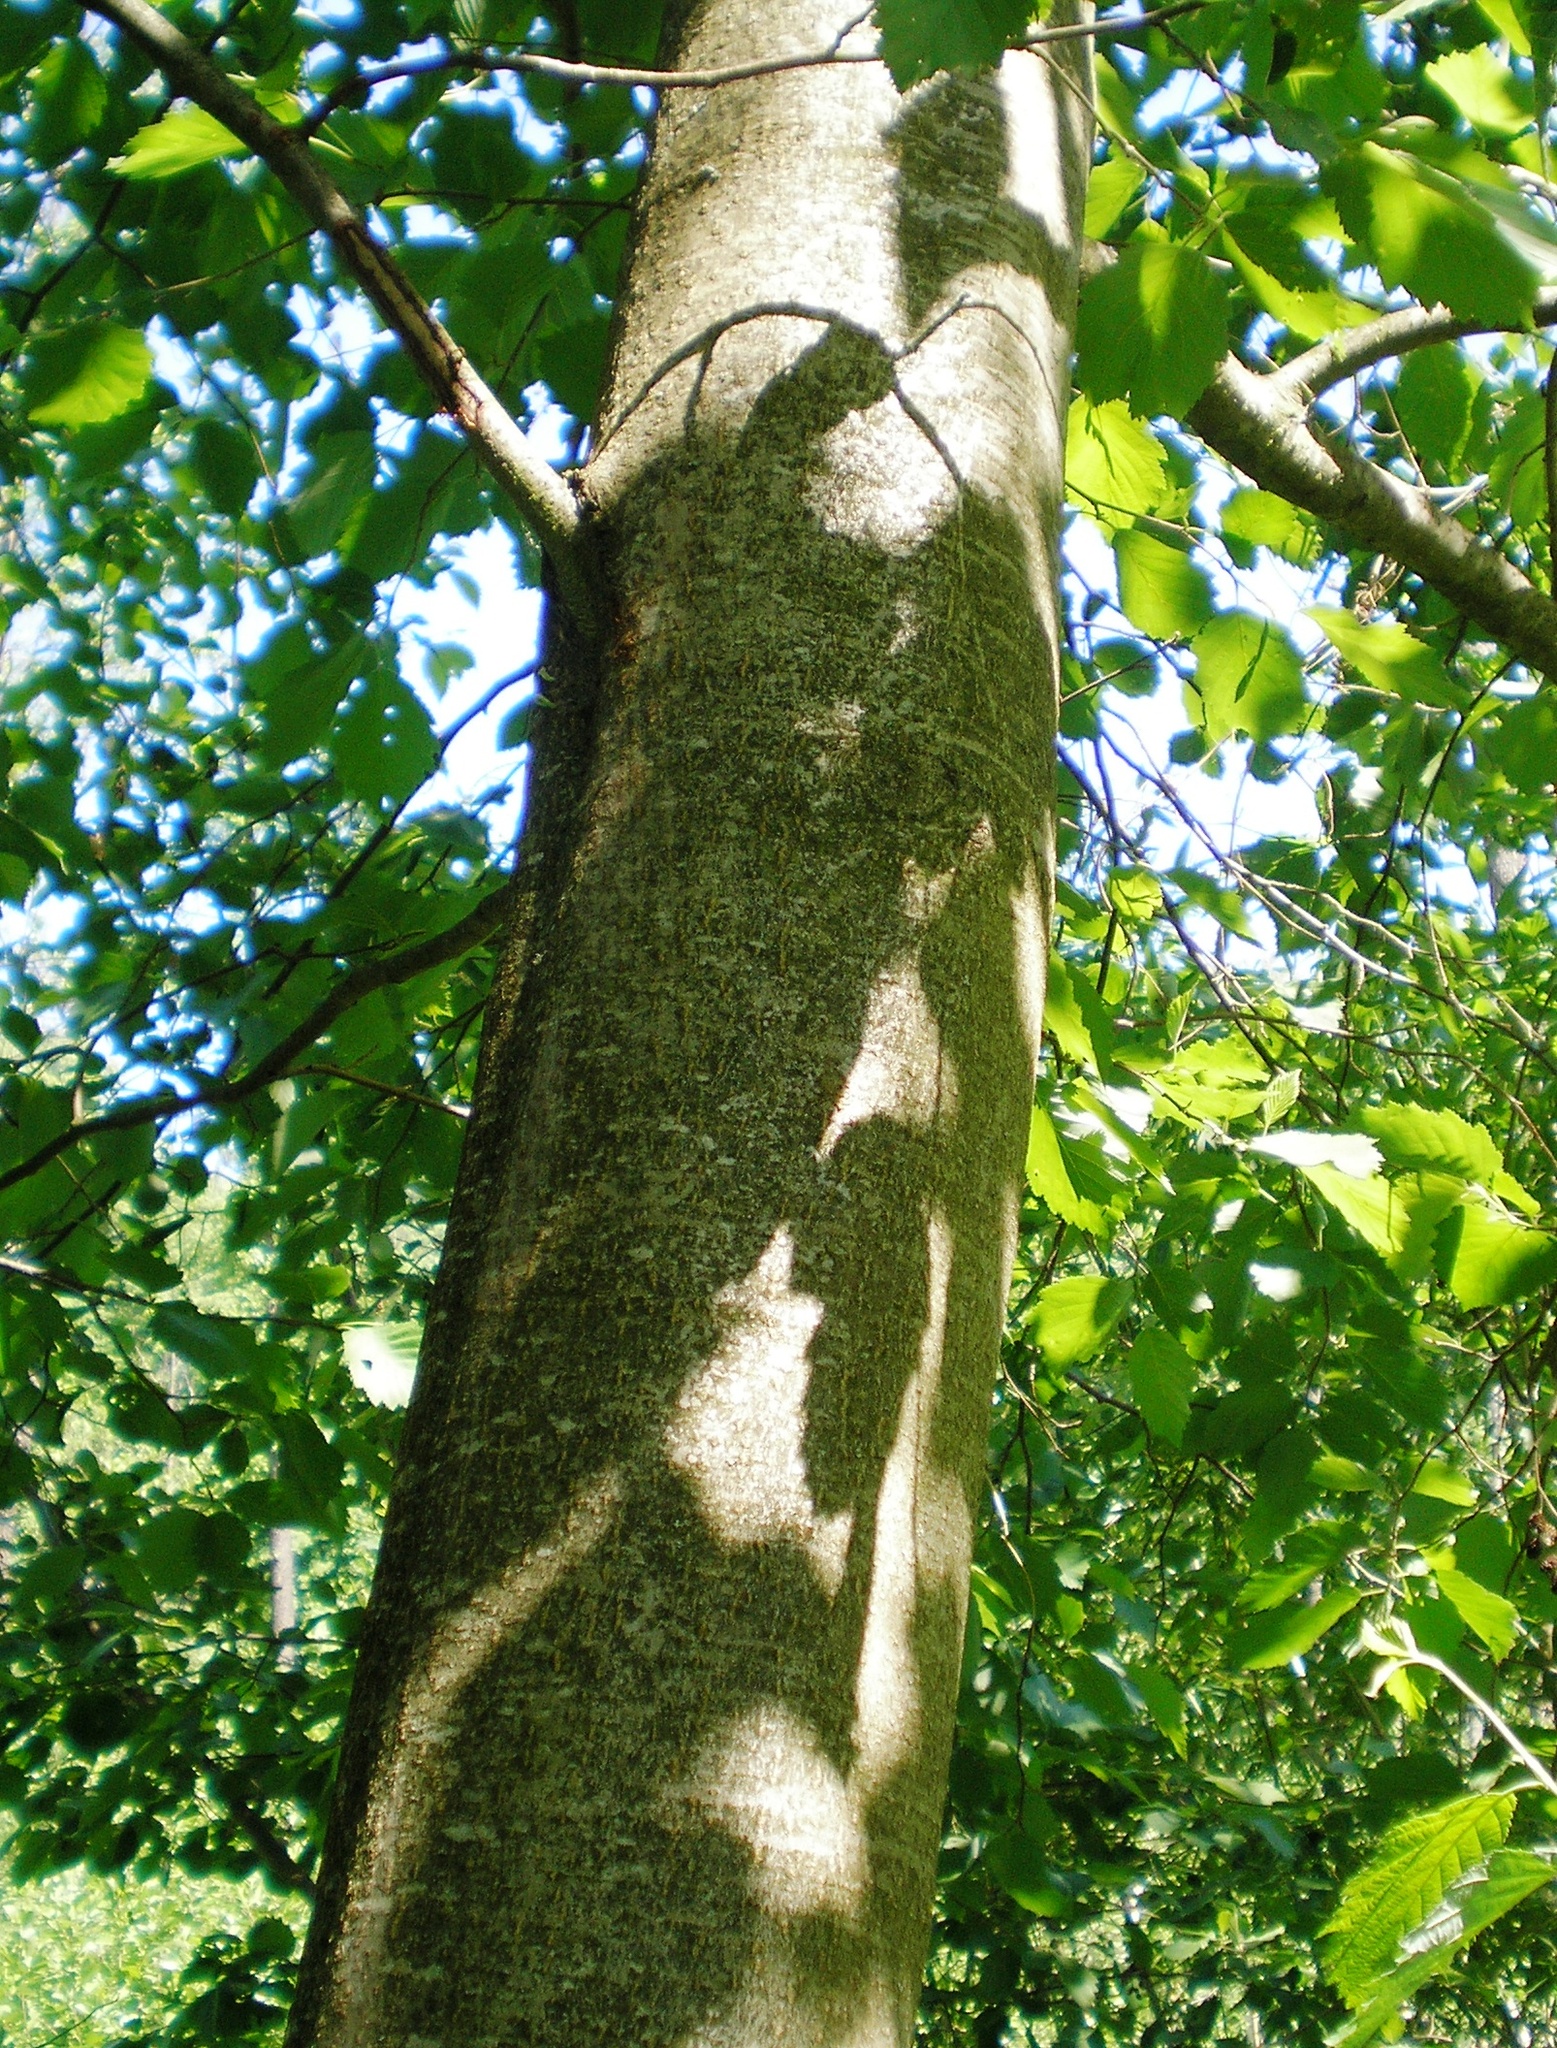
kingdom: Plantae
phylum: Tracheophyta
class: Magnoliopsida
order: Fagales
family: Betulaceae
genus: Alnus
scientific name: Alnus incana
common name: Grey alder
